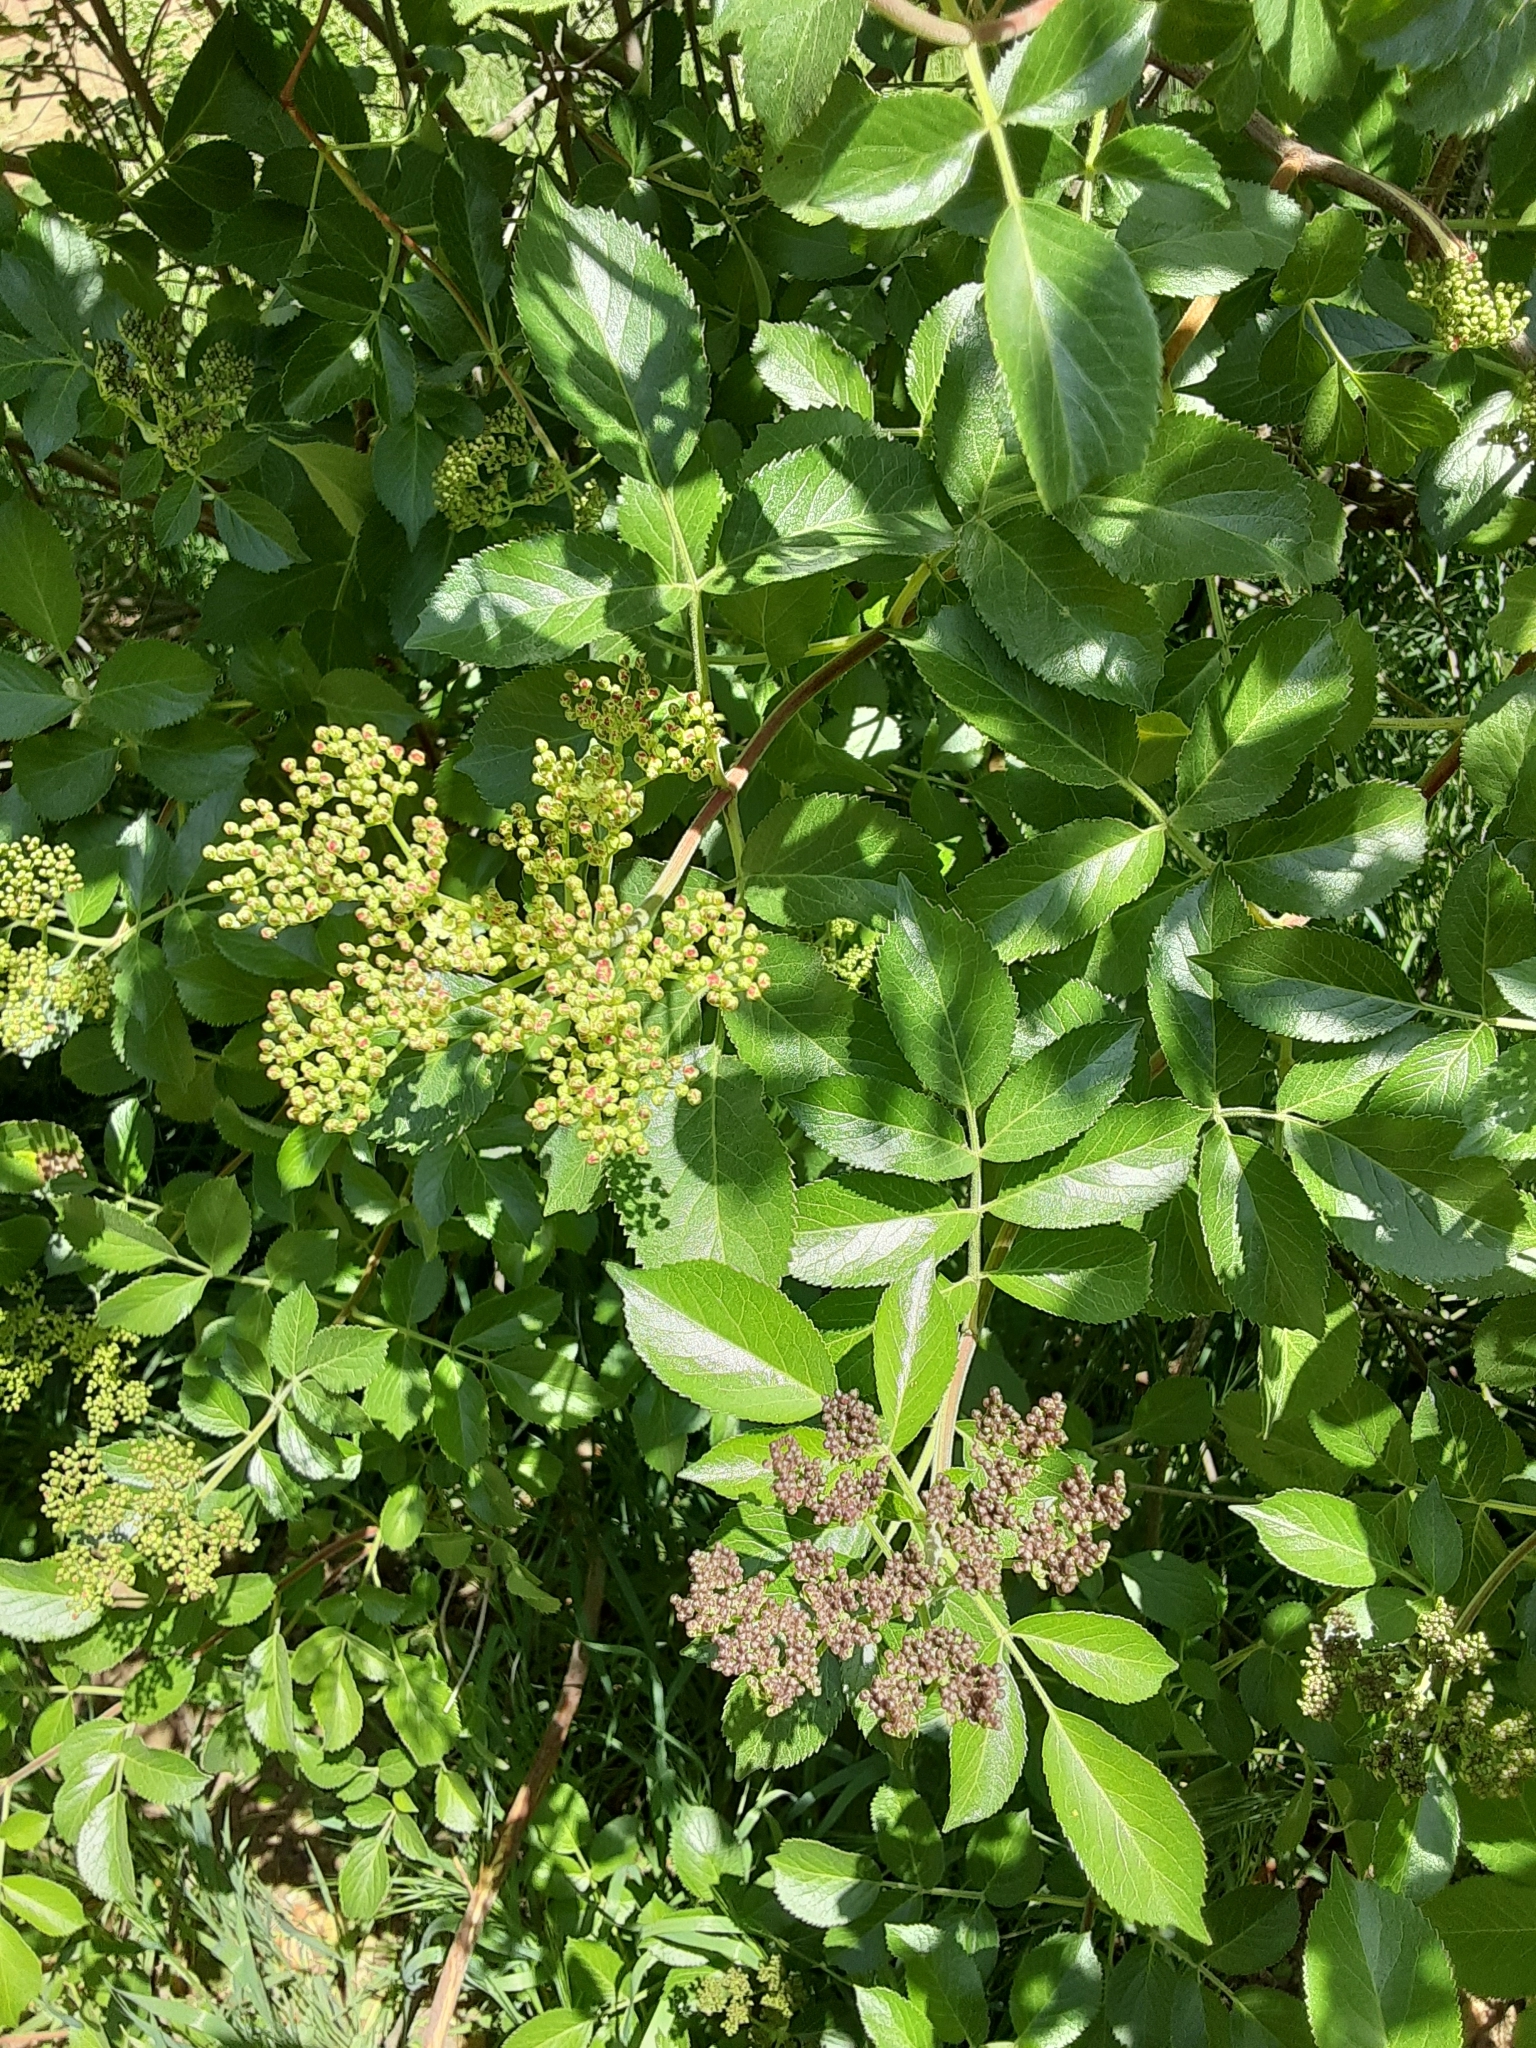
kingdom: Plantae
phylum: Tracheophyta
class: Magnoliopsida
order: Dipsacales
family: Viburnaceae
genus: Sambucus
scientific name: Sambucus cerulea
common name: Blue elder
